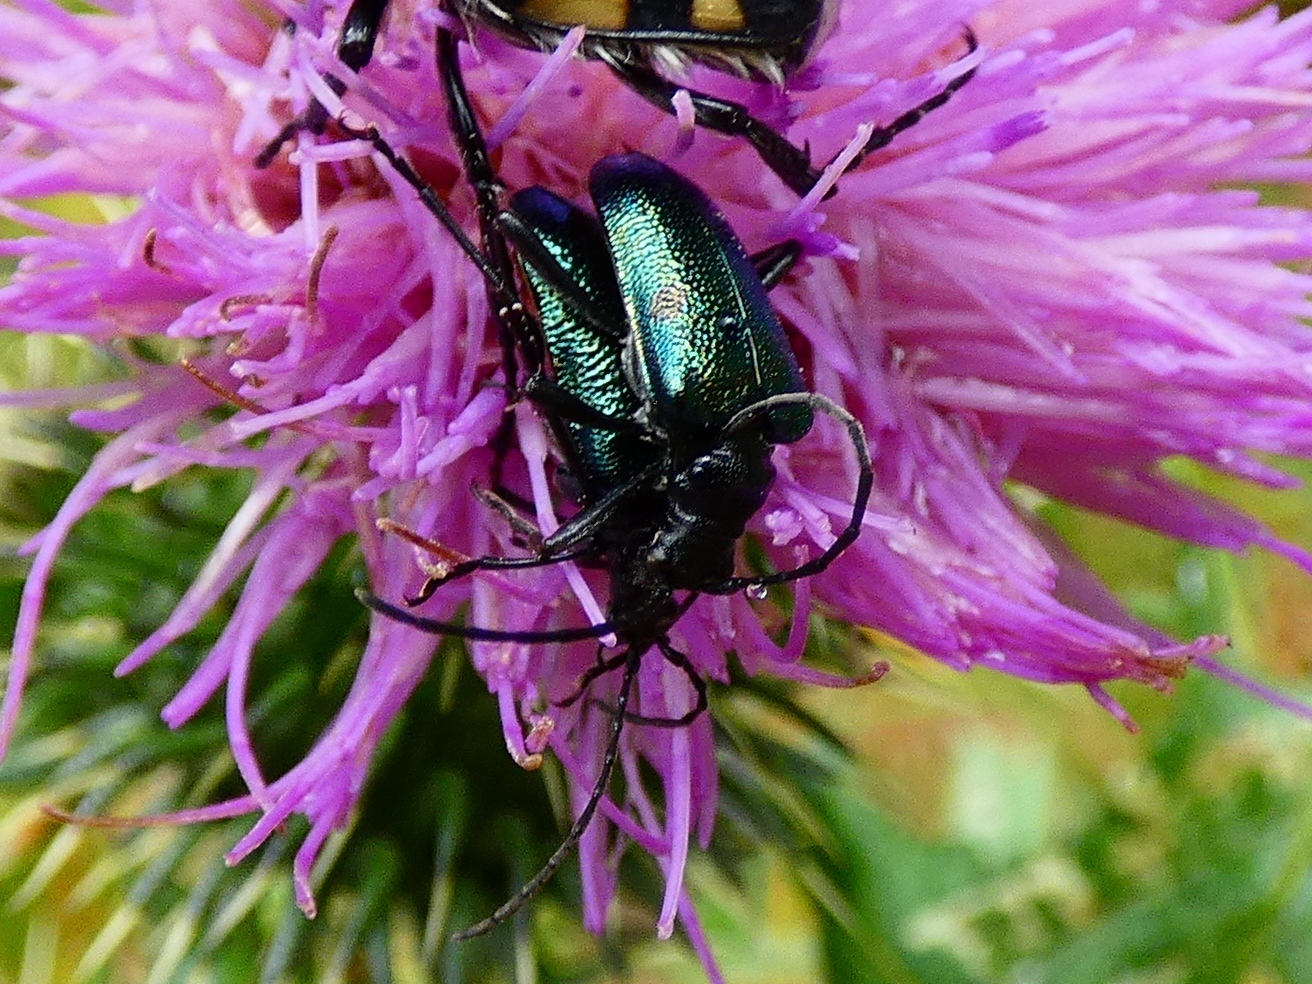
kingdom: Animalia
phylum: Arthropoda
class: Insecta
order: Coleoptera
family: Cerambycidae
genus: Gaurotes
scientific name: Gaurotes virginea
